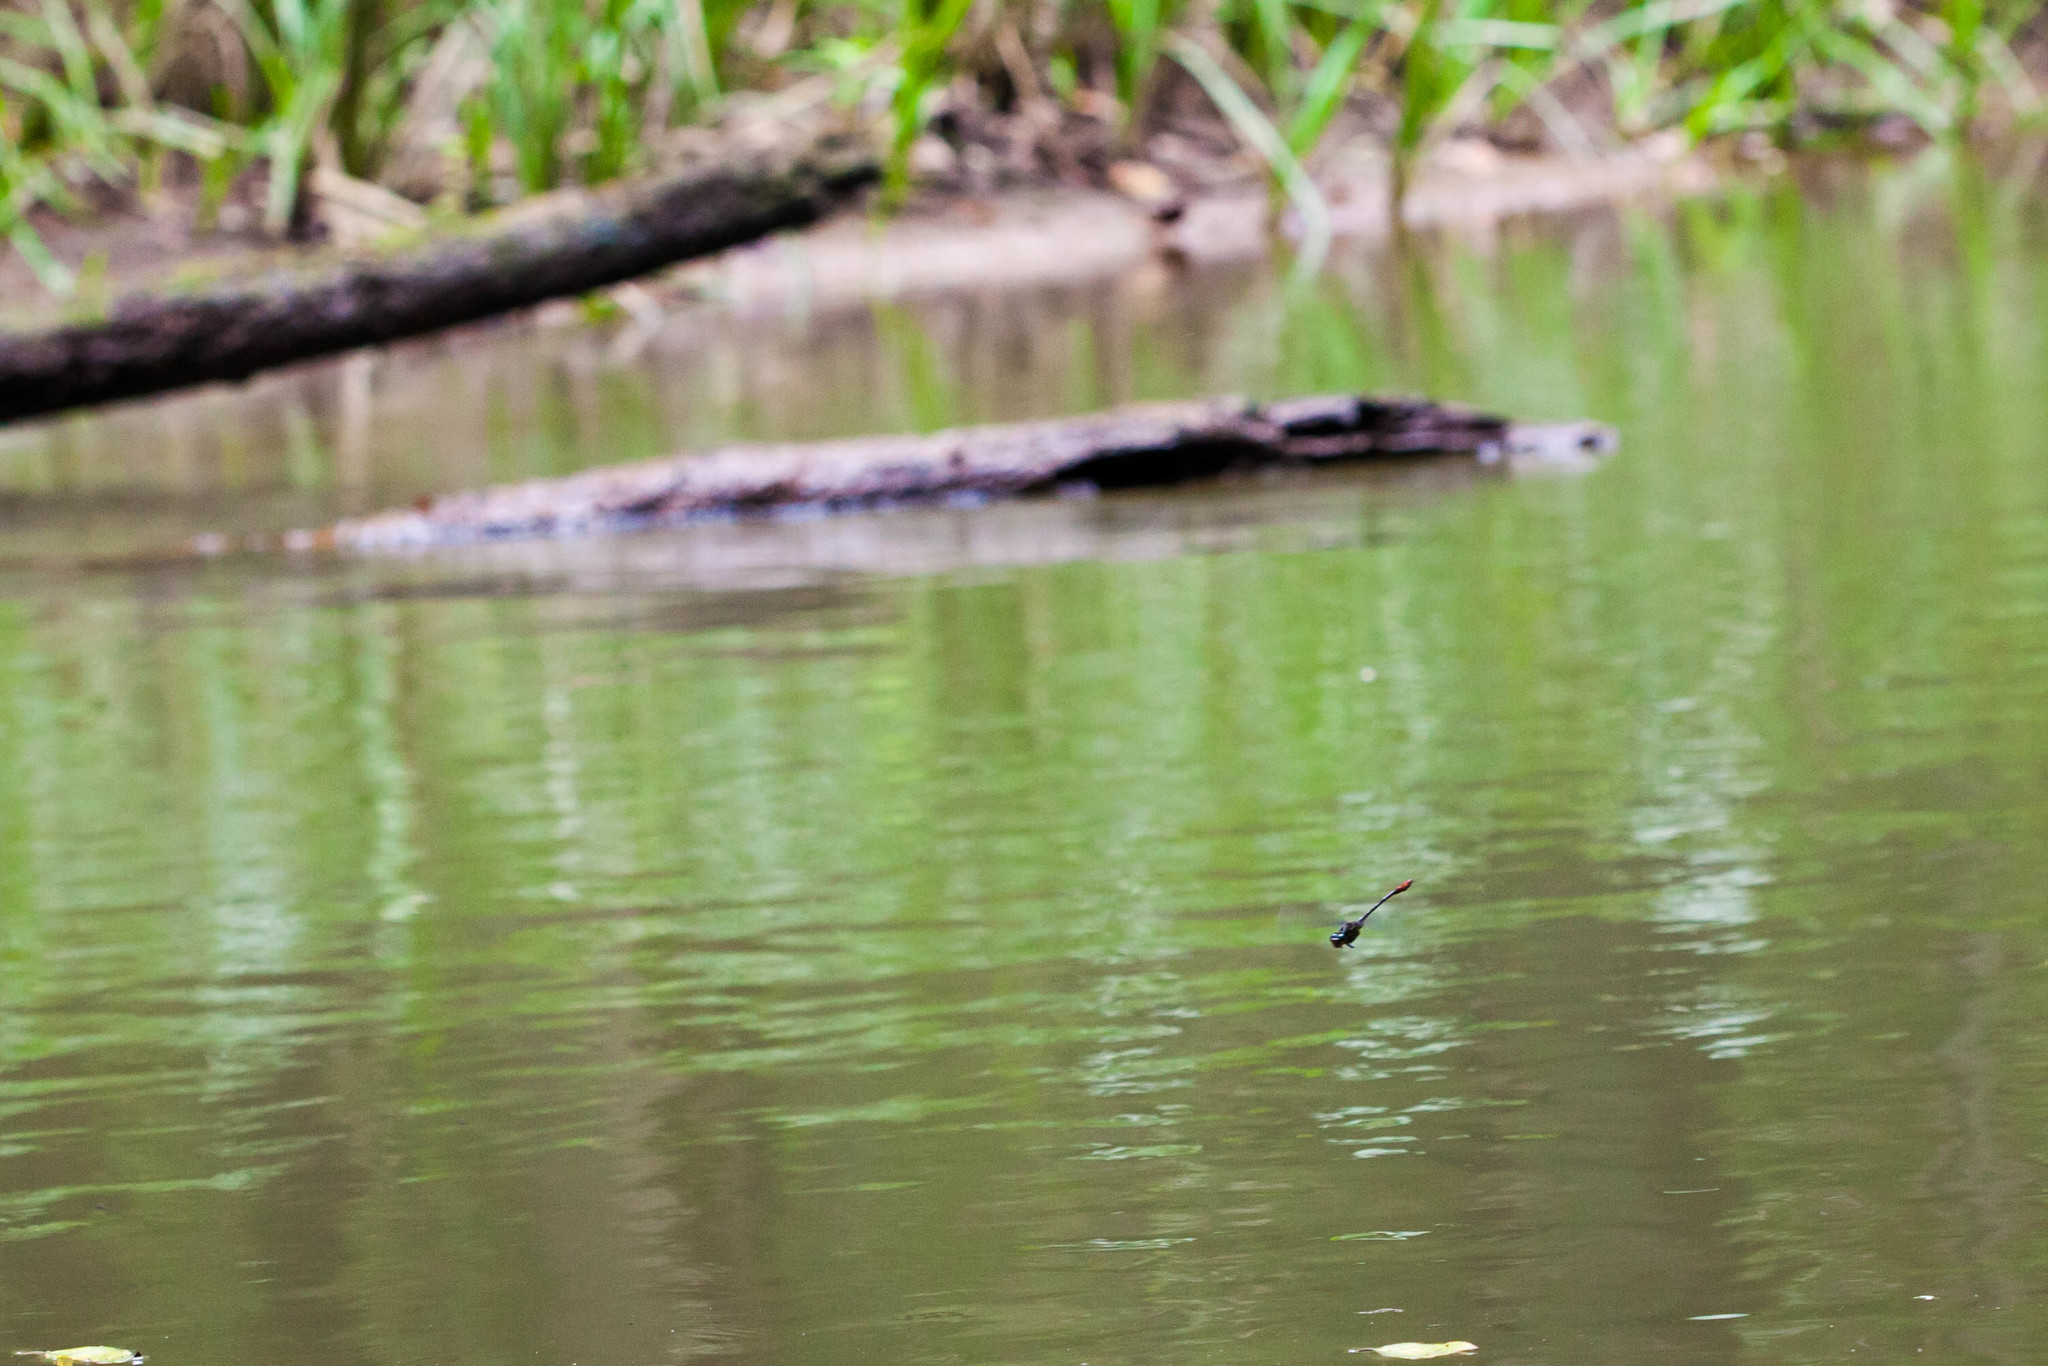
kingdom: Animalia
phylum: Arthropoda
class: Insecta
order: Odonata
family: Gomphidae
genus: Stylurus
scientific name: Stylurus plagiatus
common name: Russet-tipped clubtail
